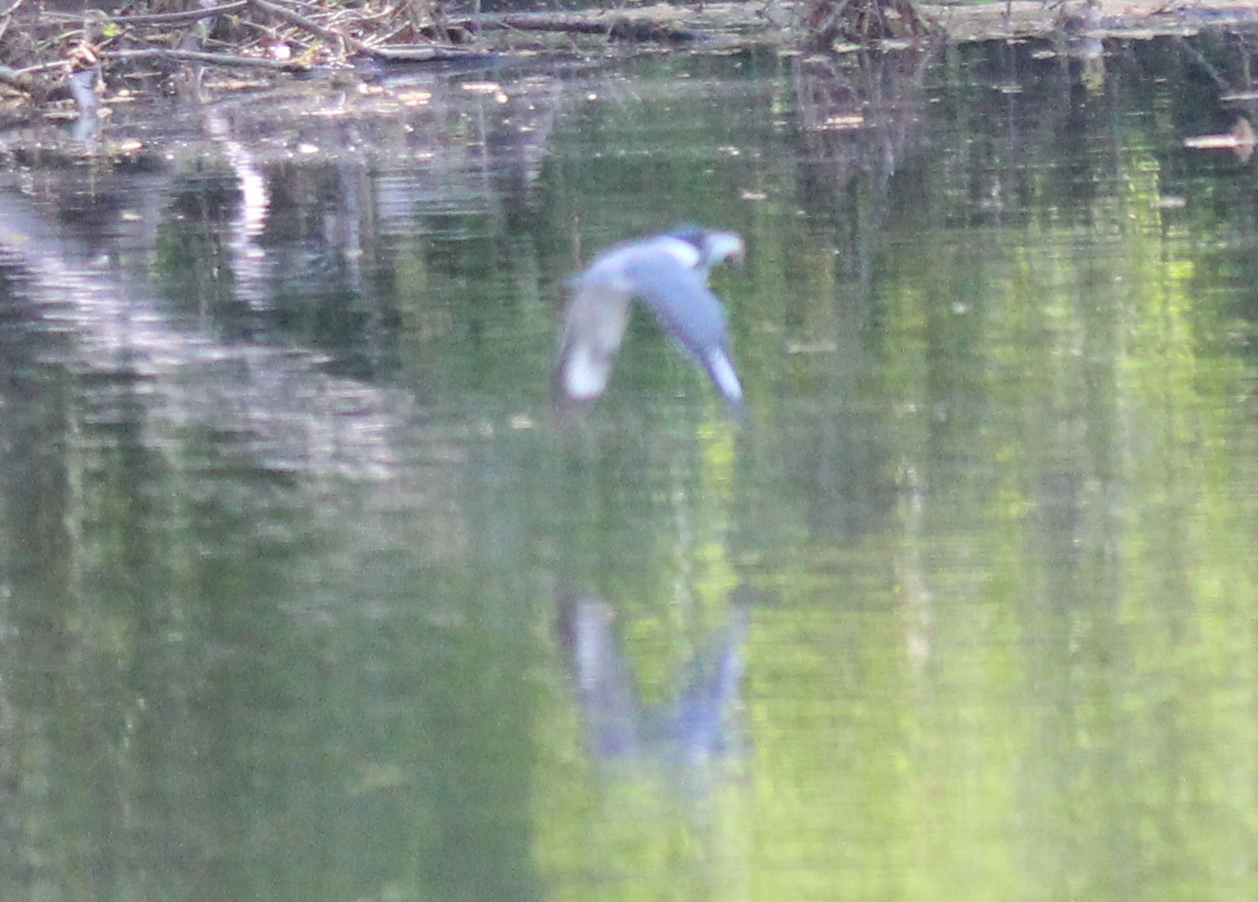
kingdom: Animalia
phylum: Chordata
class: Aves
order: Coraciiformes
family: Alcedinidae
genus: Megaceryle
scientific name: Megaceryle alcyon
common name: Belted kingfisher
